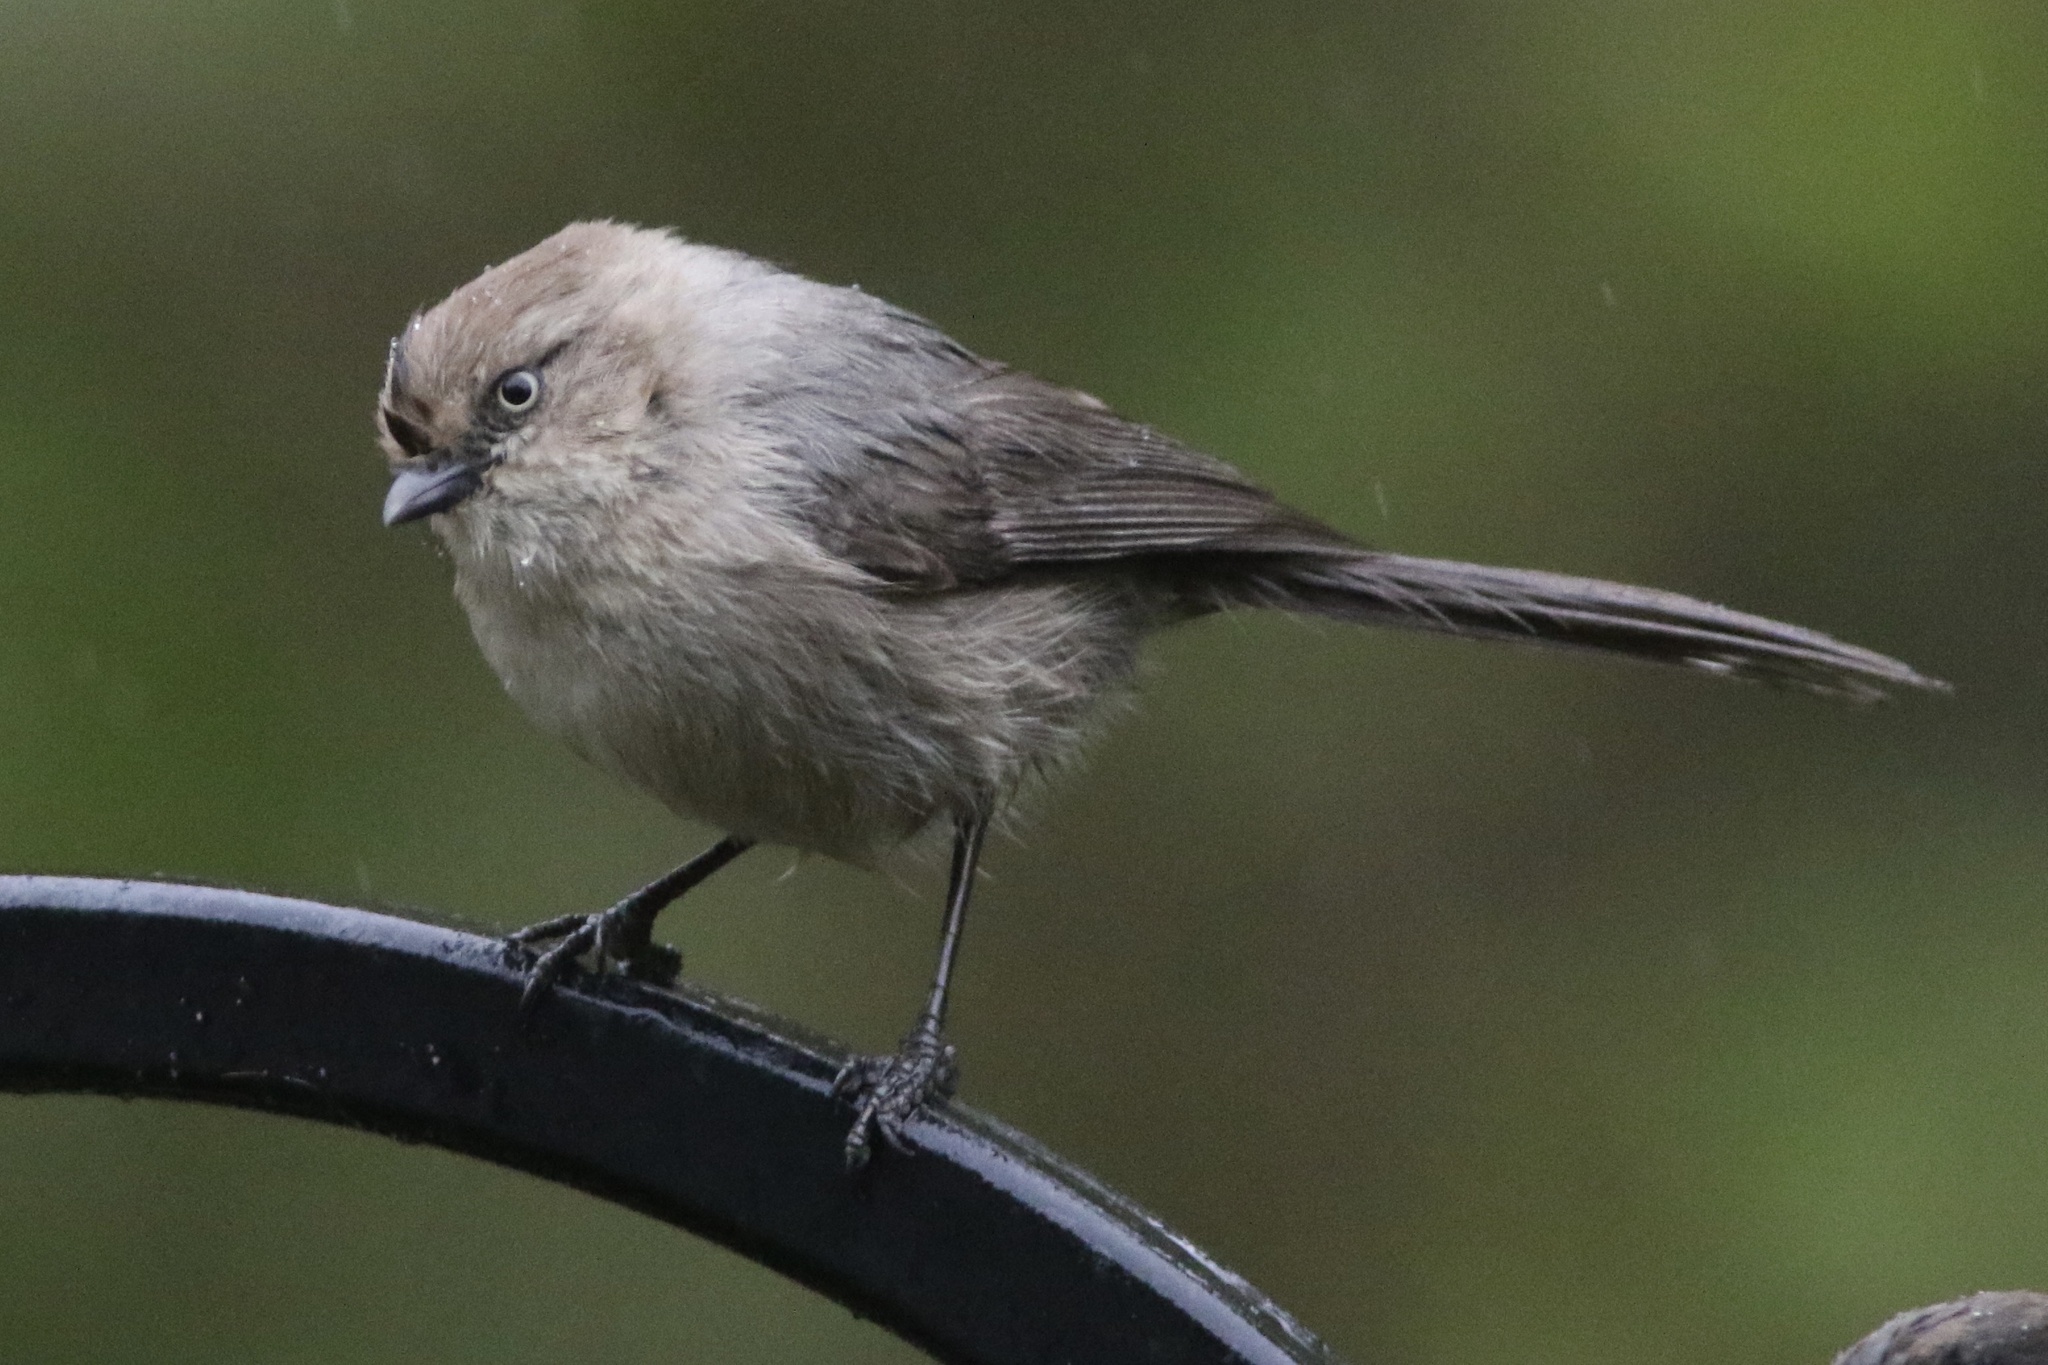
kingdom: Animalia
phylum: Chordata
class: Aves
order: Passeriformes
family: Aegithalidae
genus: Psaltriparus
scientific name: Psaltriparus minimus
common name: American bushtit
